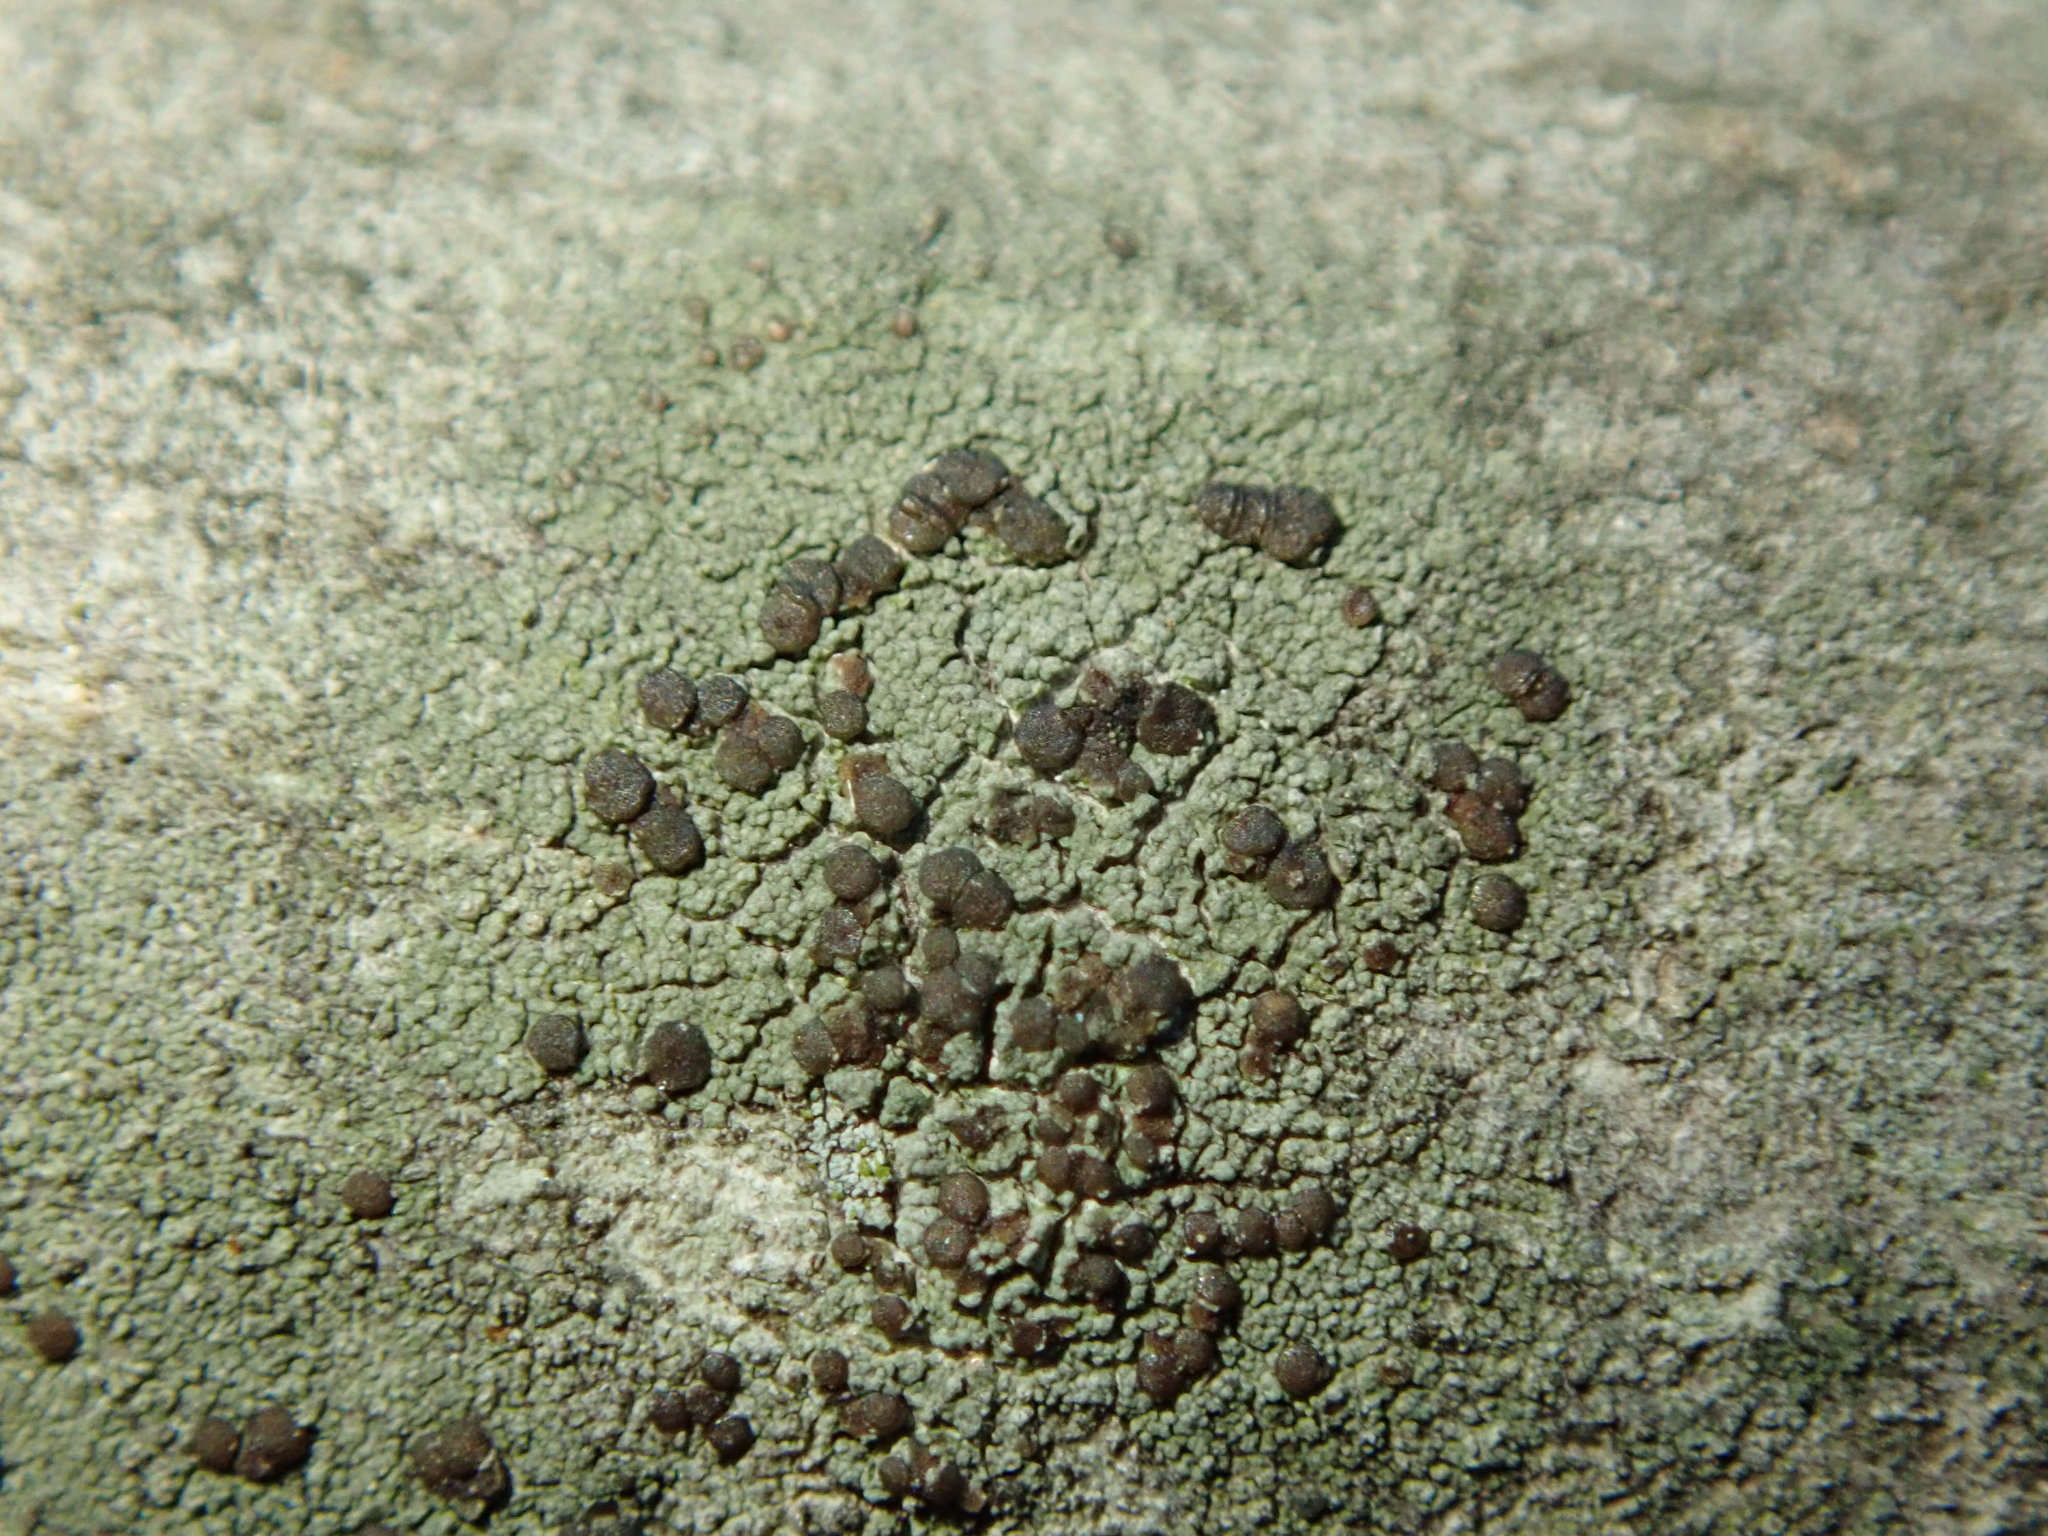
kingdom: Fungi
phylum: Ascomycota
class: Lecanoromycetes
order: Lecanorales
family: Lecanoraceae
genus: Traponora
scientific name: Traponora varians
